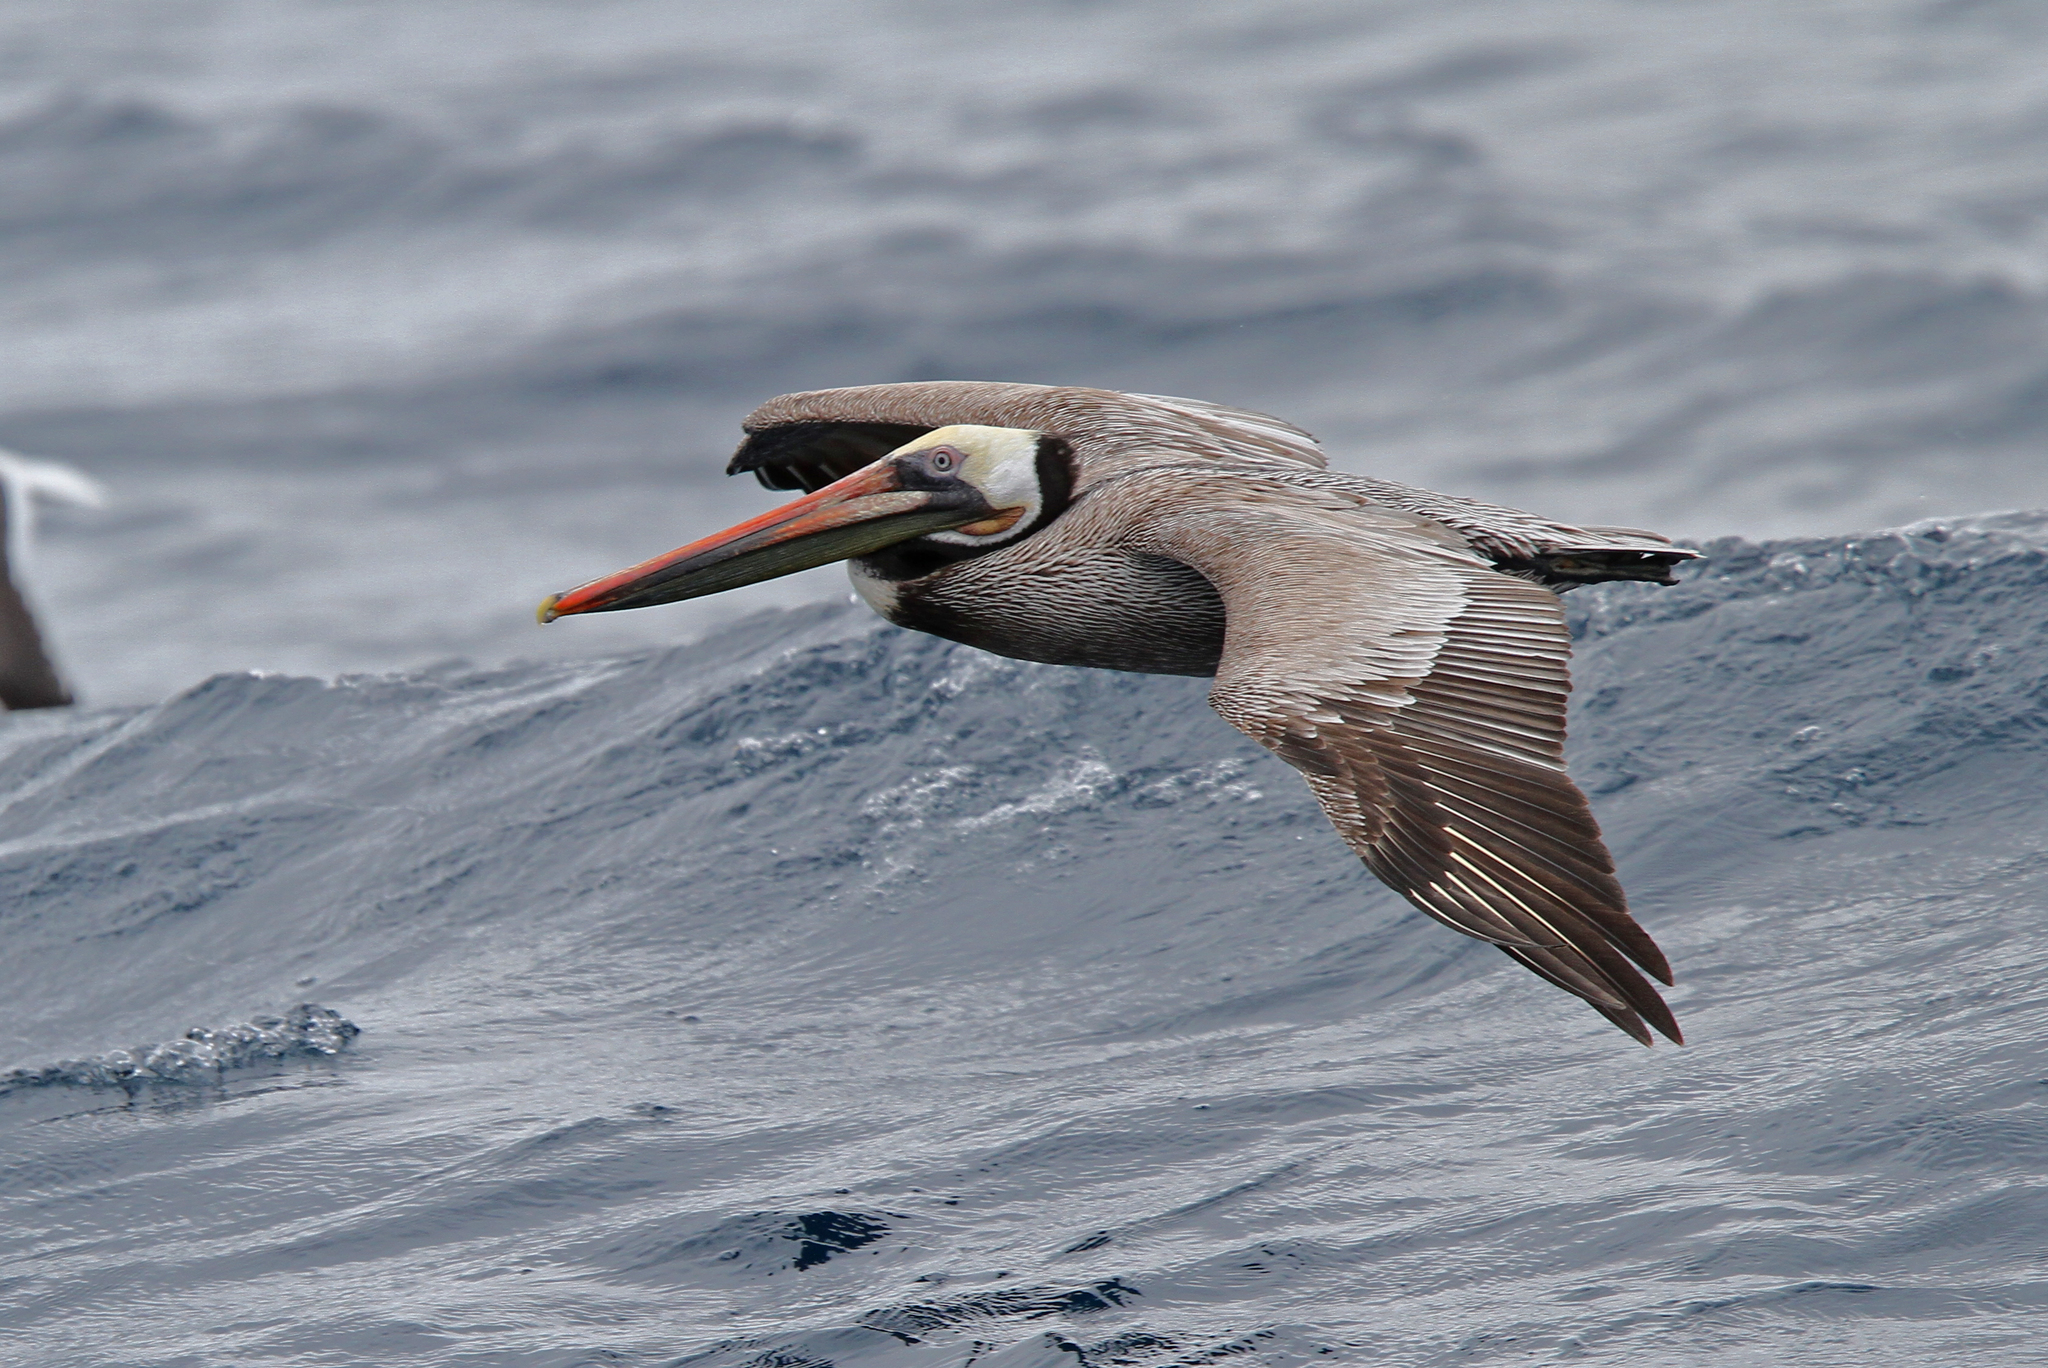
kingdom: Animalia
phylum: Chordata
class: Aves
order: Pelecaniformes
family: Pelecanidae
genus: Pelecanus
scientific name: Pelecanus occidentalis
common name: Brown pelican
